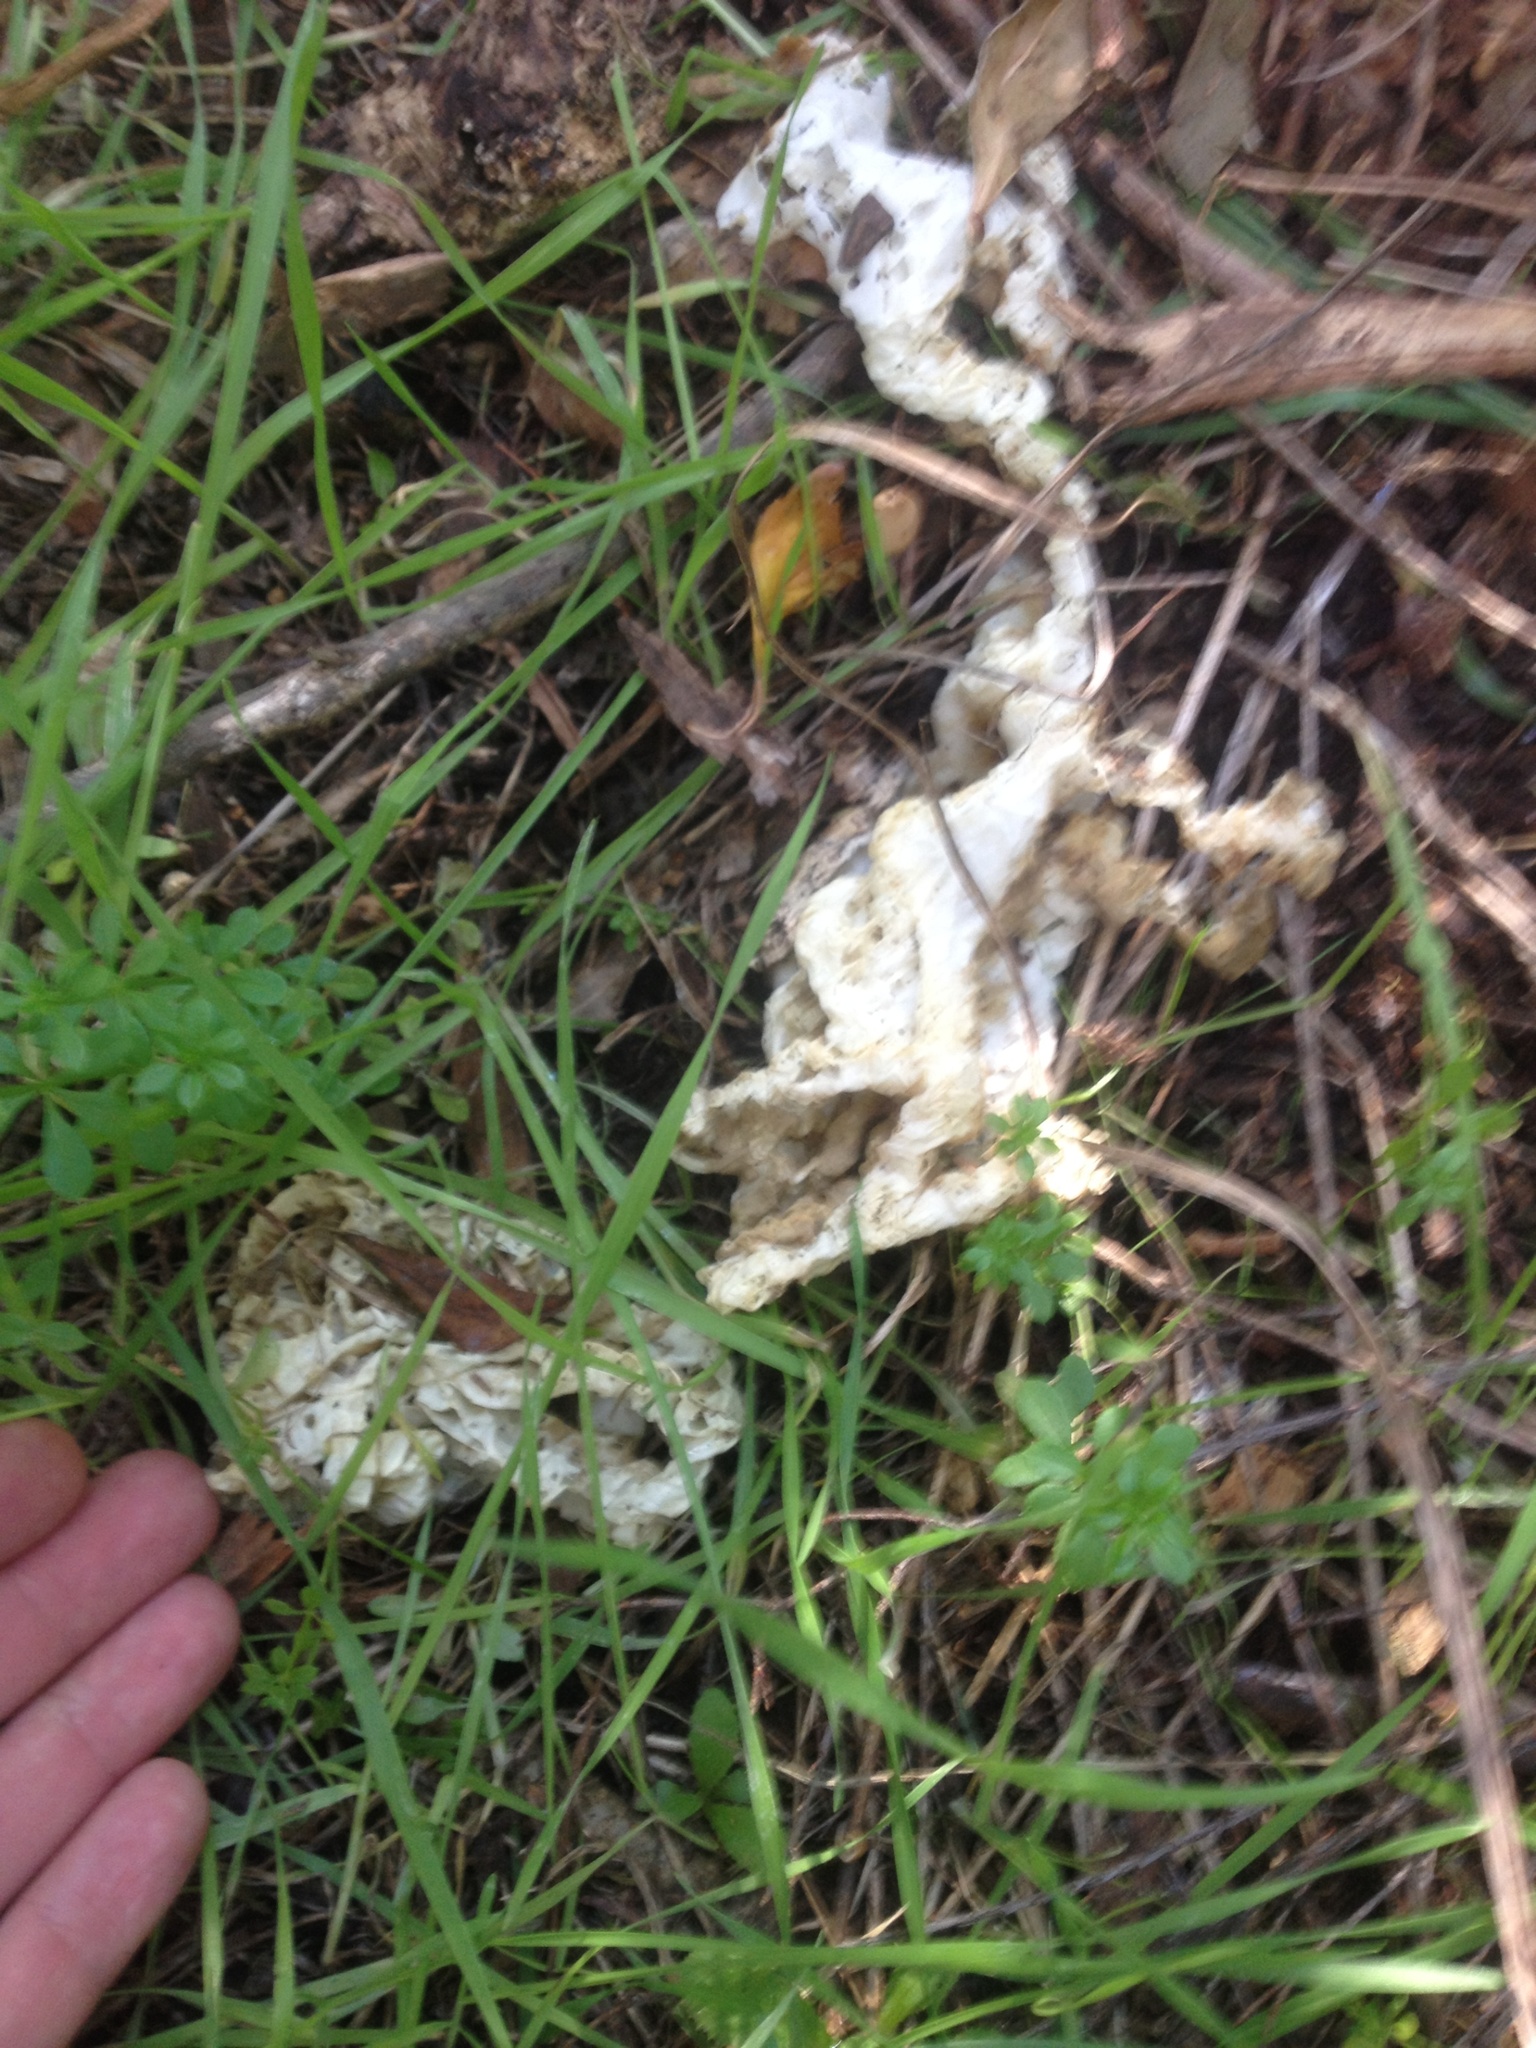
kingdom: Fungi
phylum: Basidiomycota
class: Agaricomycetes
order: Phallales
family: Phallaceae
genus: Ileodictyon
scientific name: Ileodictyon cibarium
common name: Basket fungus
